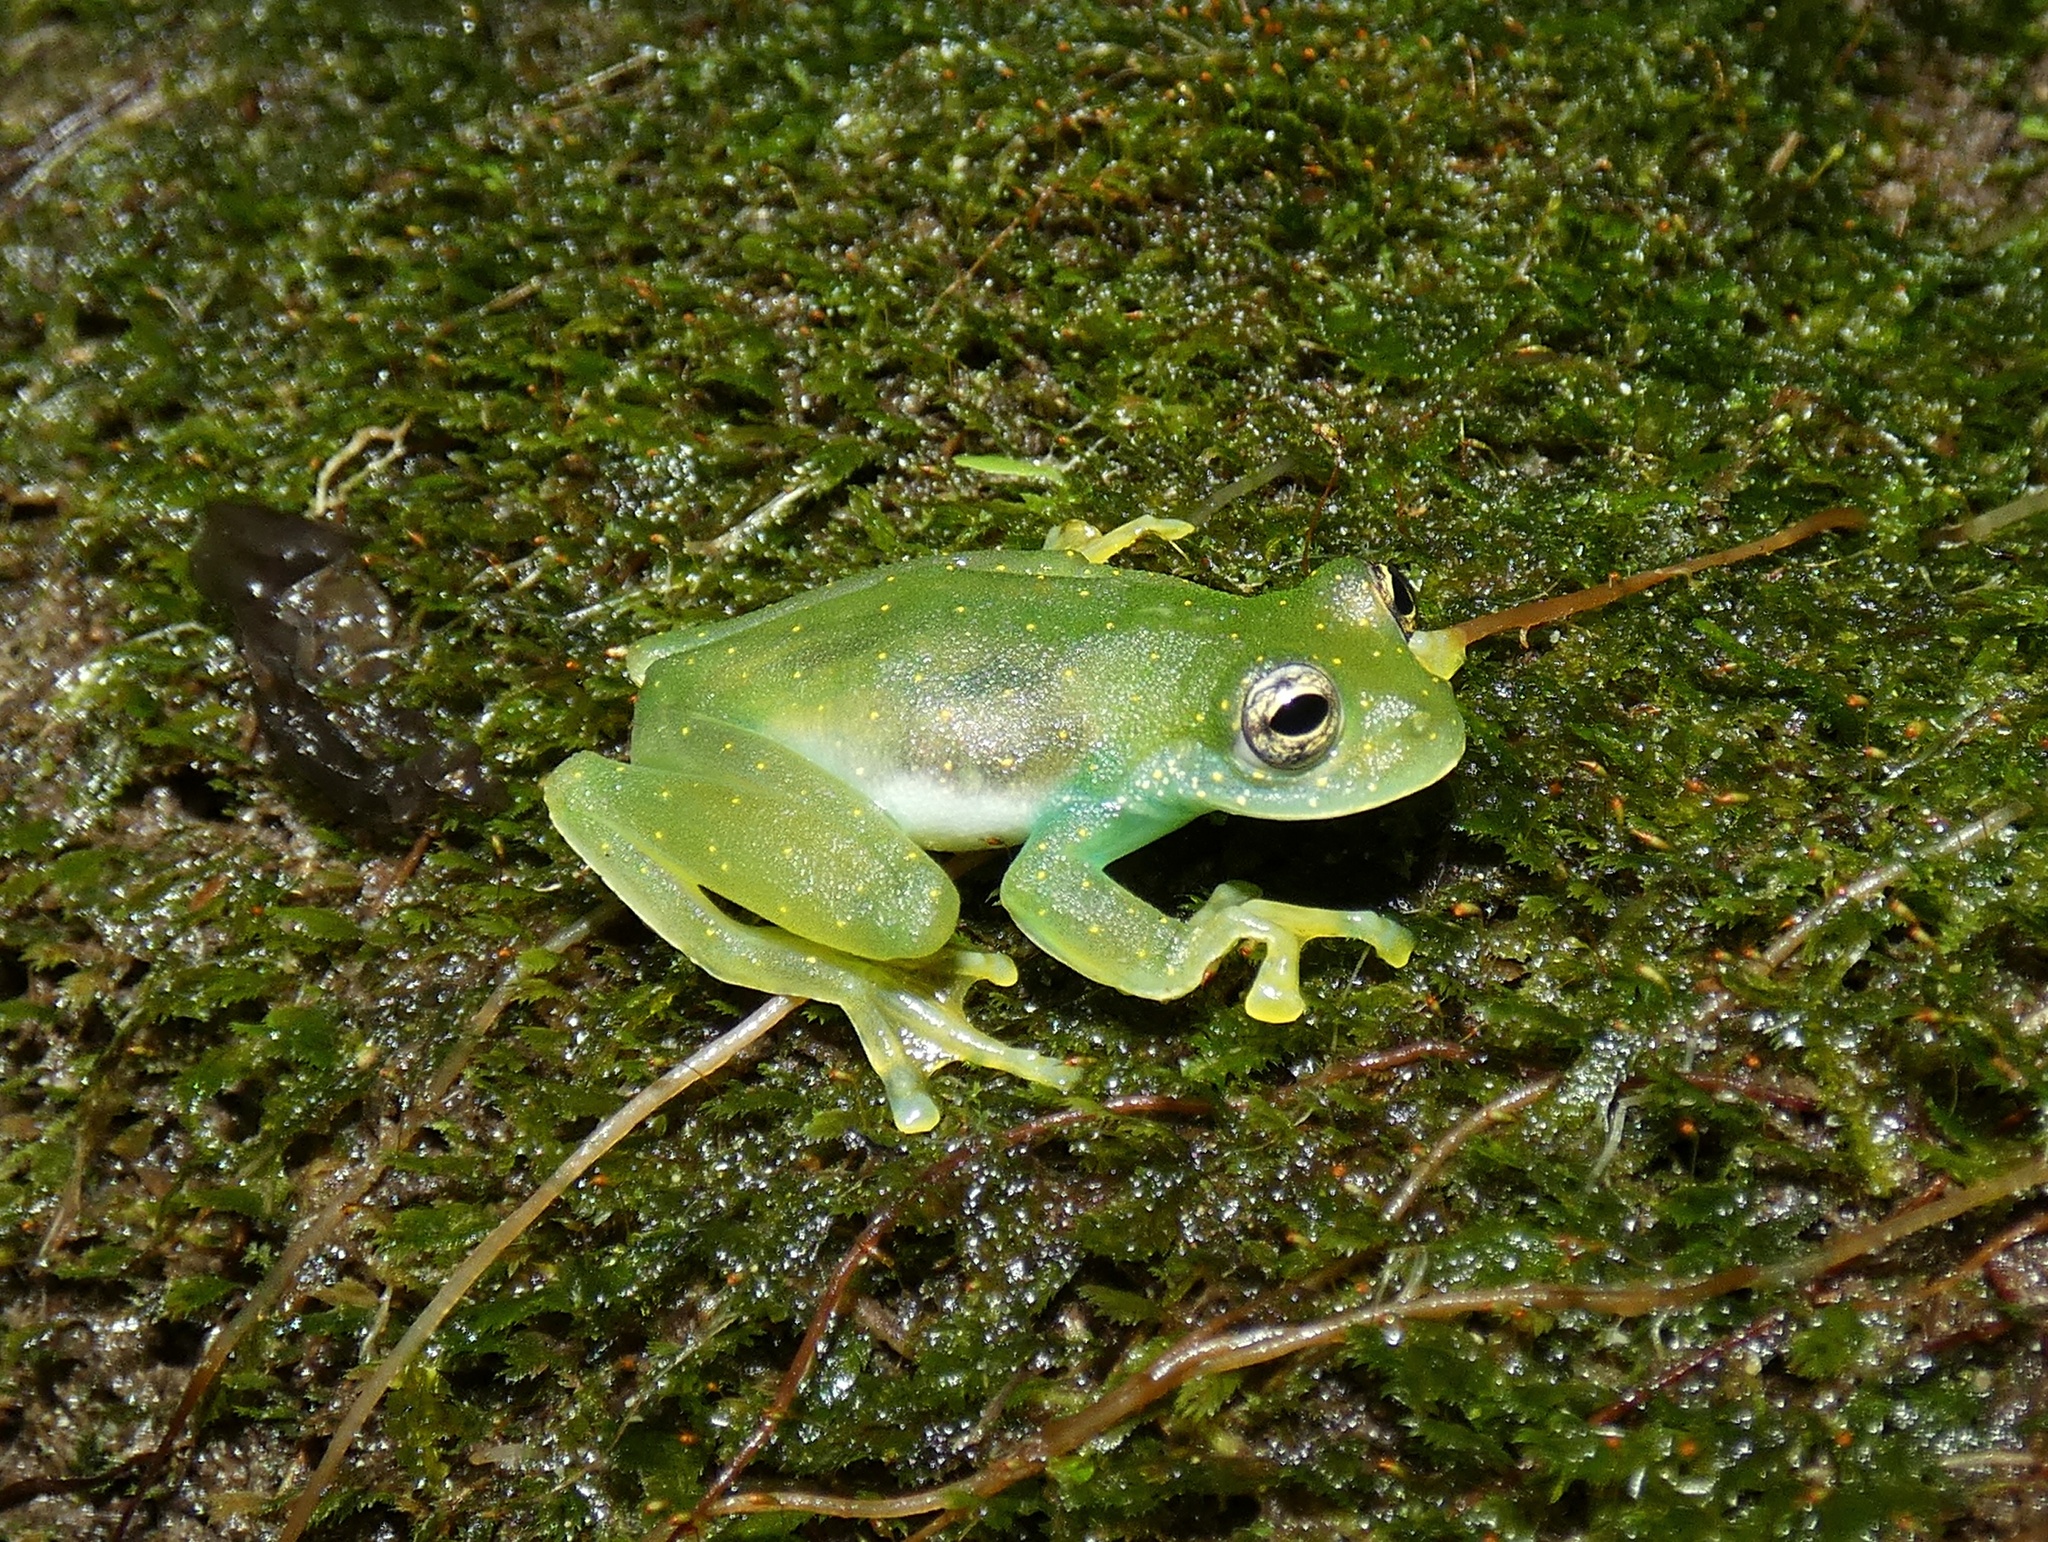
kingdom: Animalia
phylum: Chordata
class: Amphibia
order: Anura
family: Centrolenidae
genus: Sachatamia
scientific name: Sachatamia albomaculata
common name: Rana de cristal de cascada
